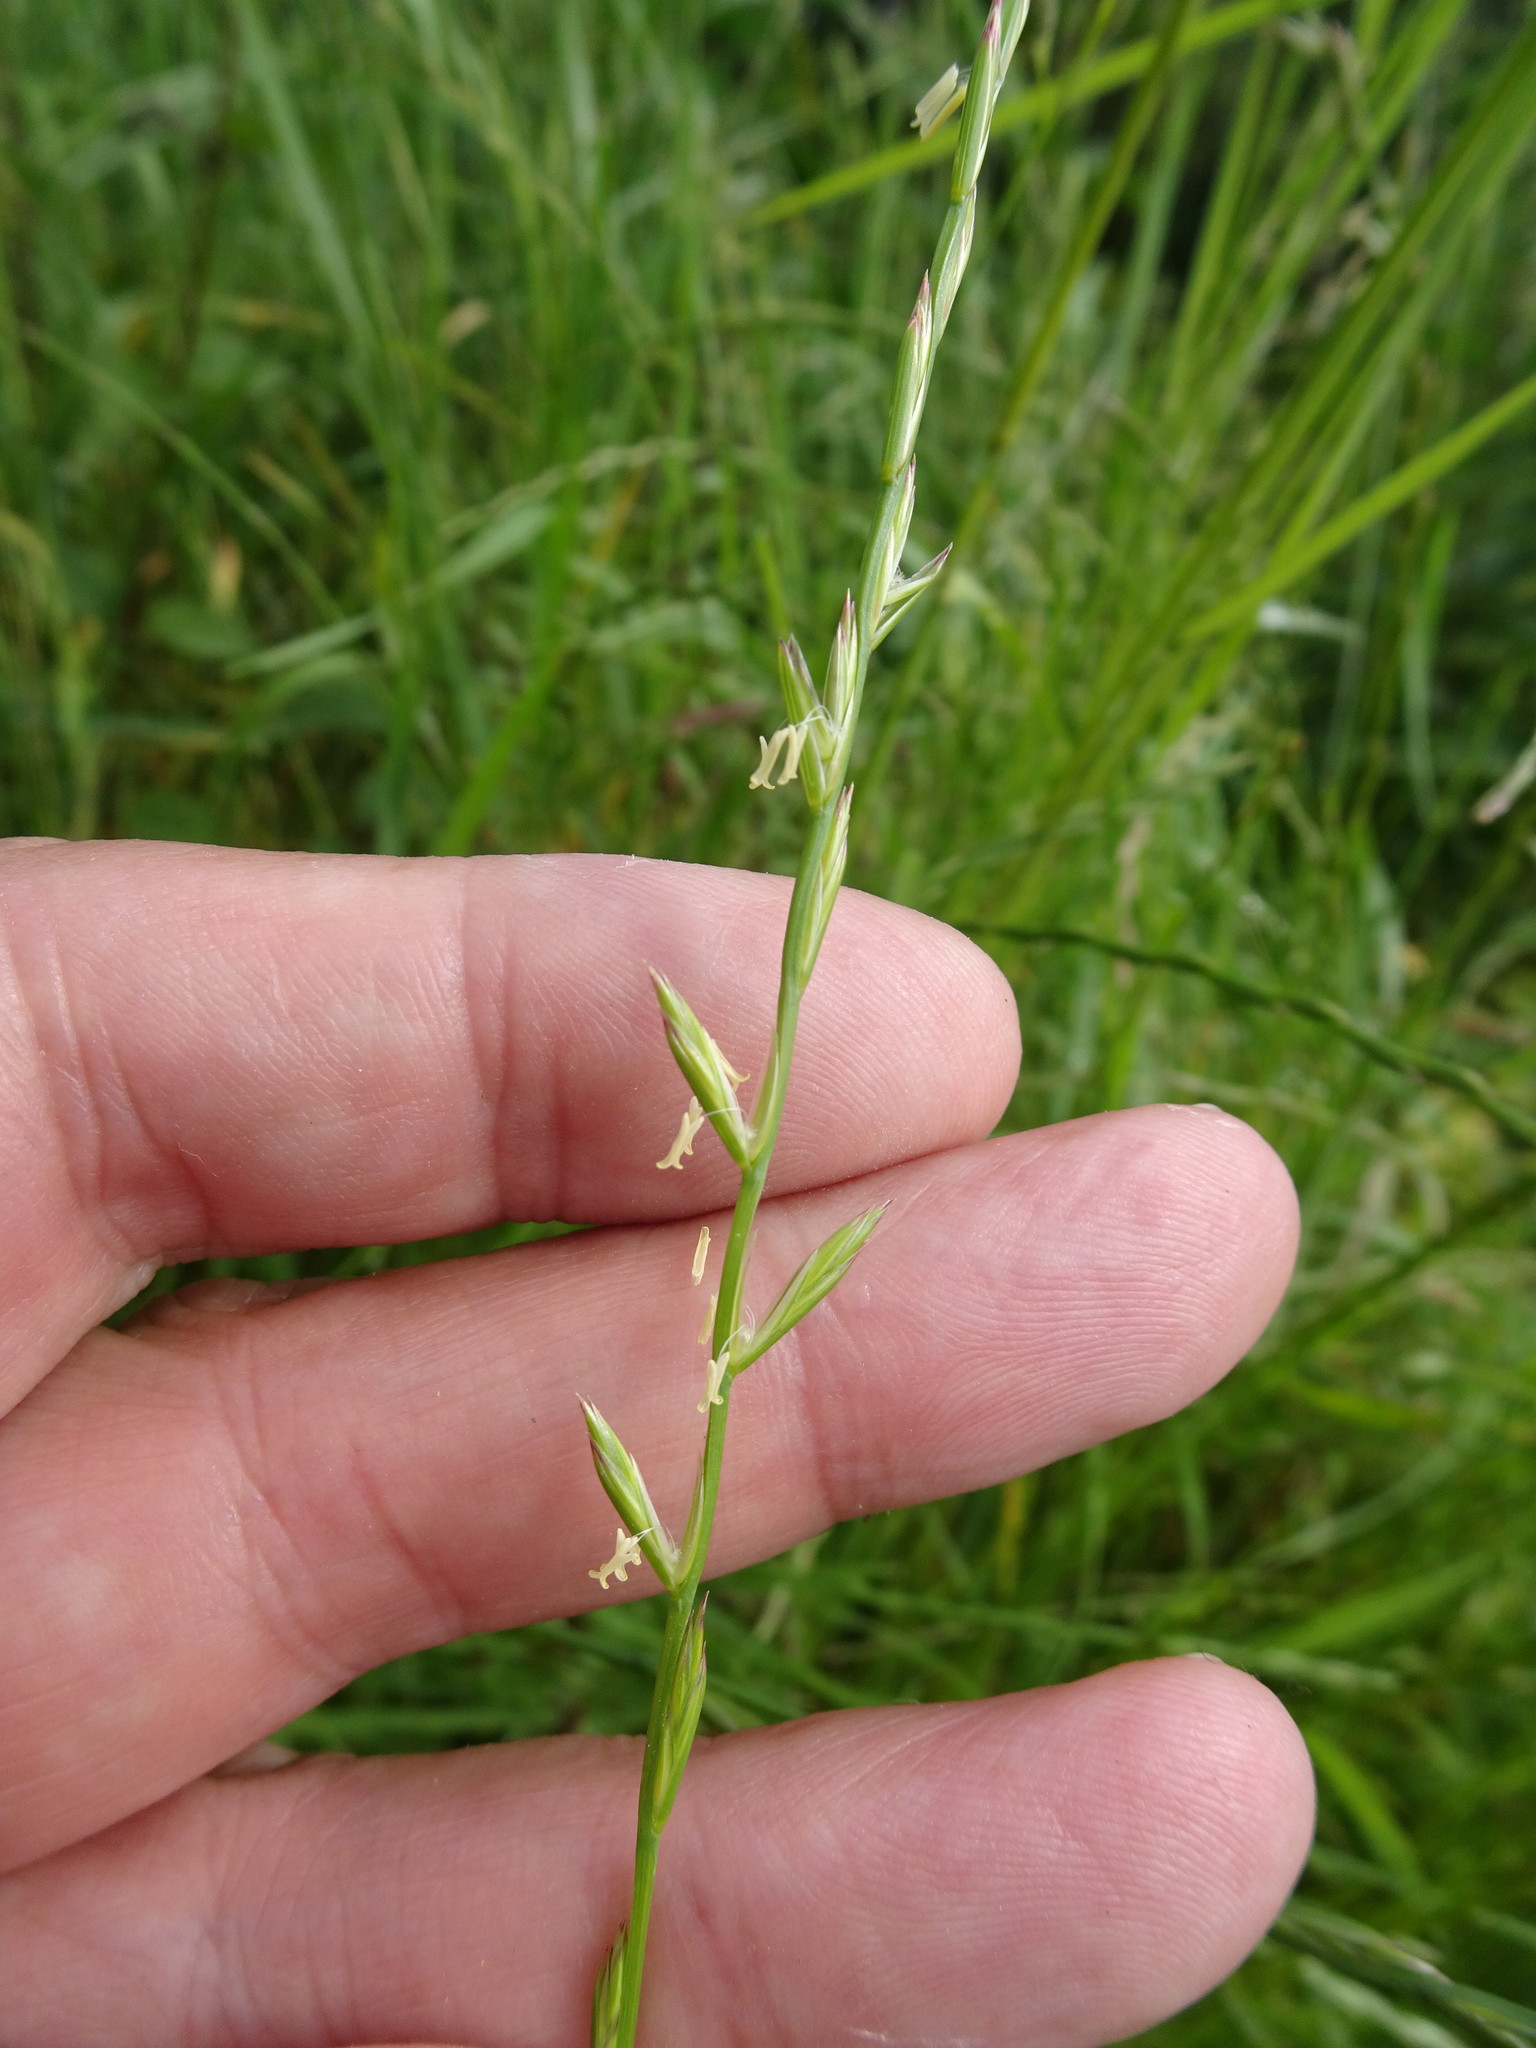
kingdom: Plantae
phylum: Tracheophyta
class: Liliopsida
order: Poales
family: Poaceae
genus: Lolium
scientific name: Lolium perenne
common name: Perennial ryegrass
